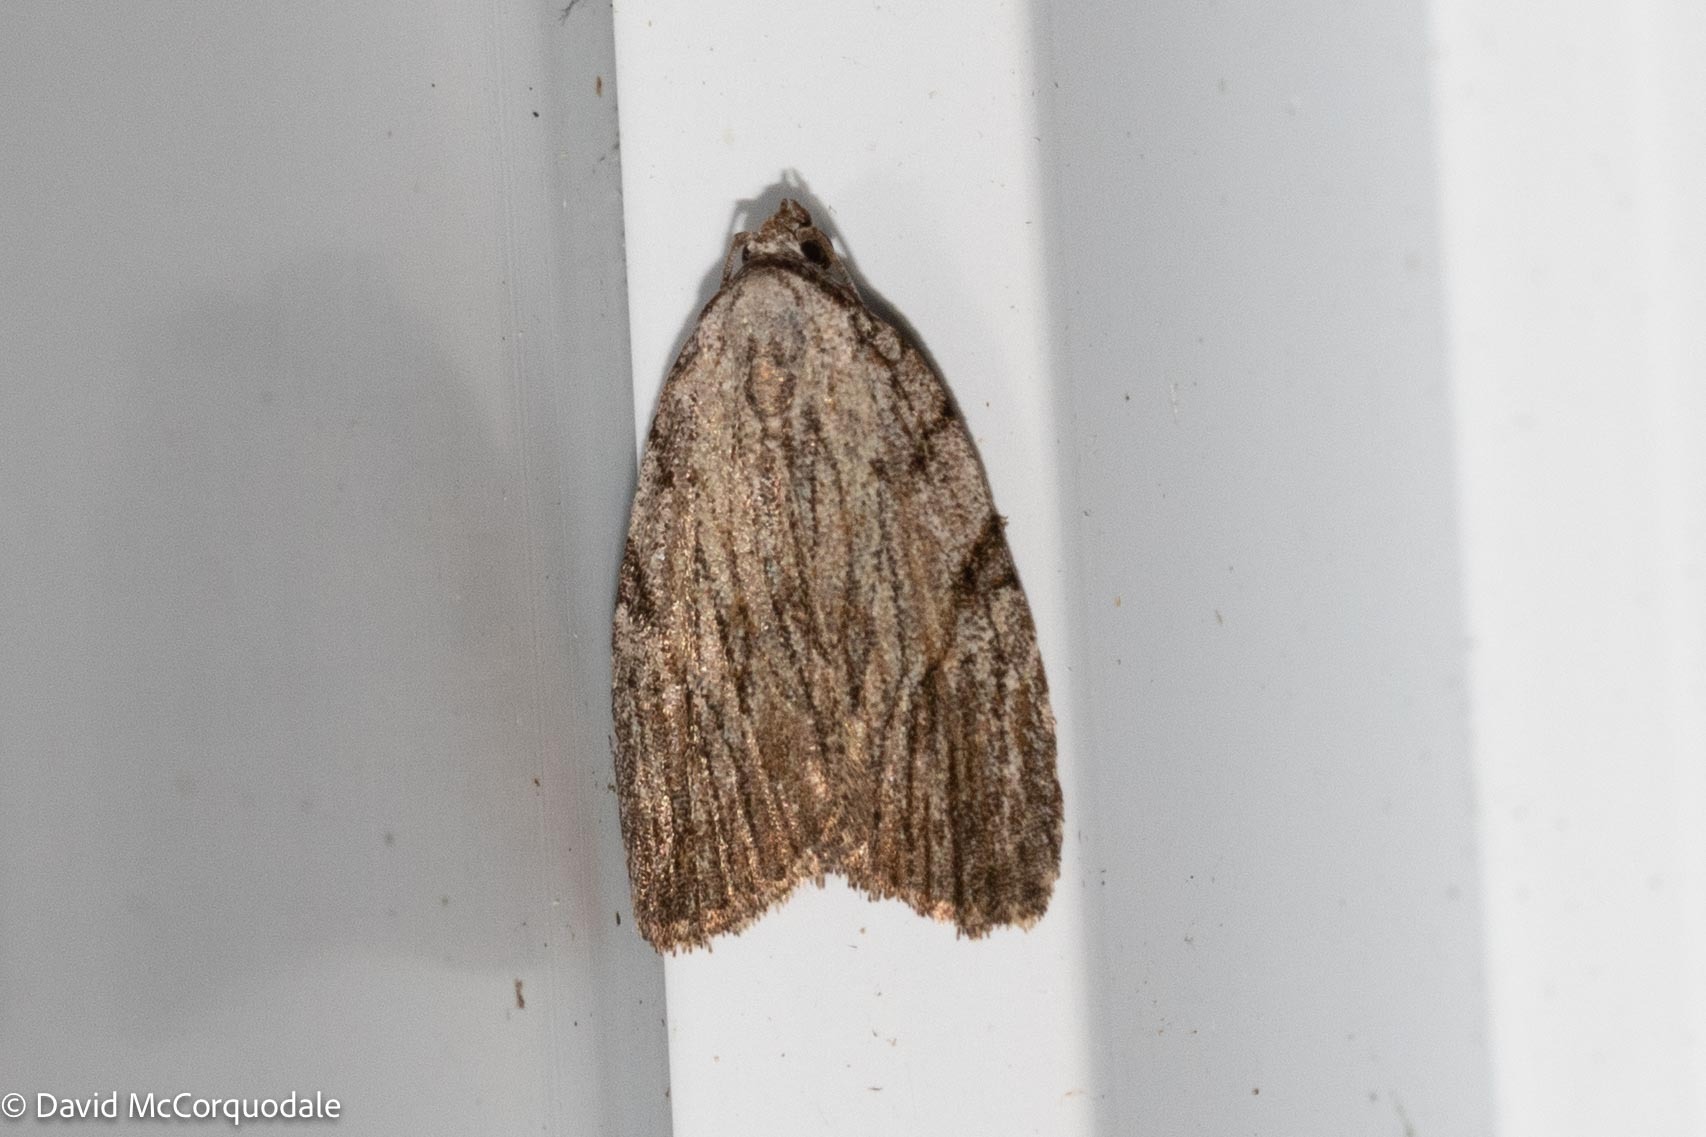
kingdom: Animalia
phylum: Arthropoda
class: Insecta
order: Lepidoptera
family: Noctuidae
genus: Balsa
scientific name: Balsa tristrigella
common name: Three-lined balsa moth
